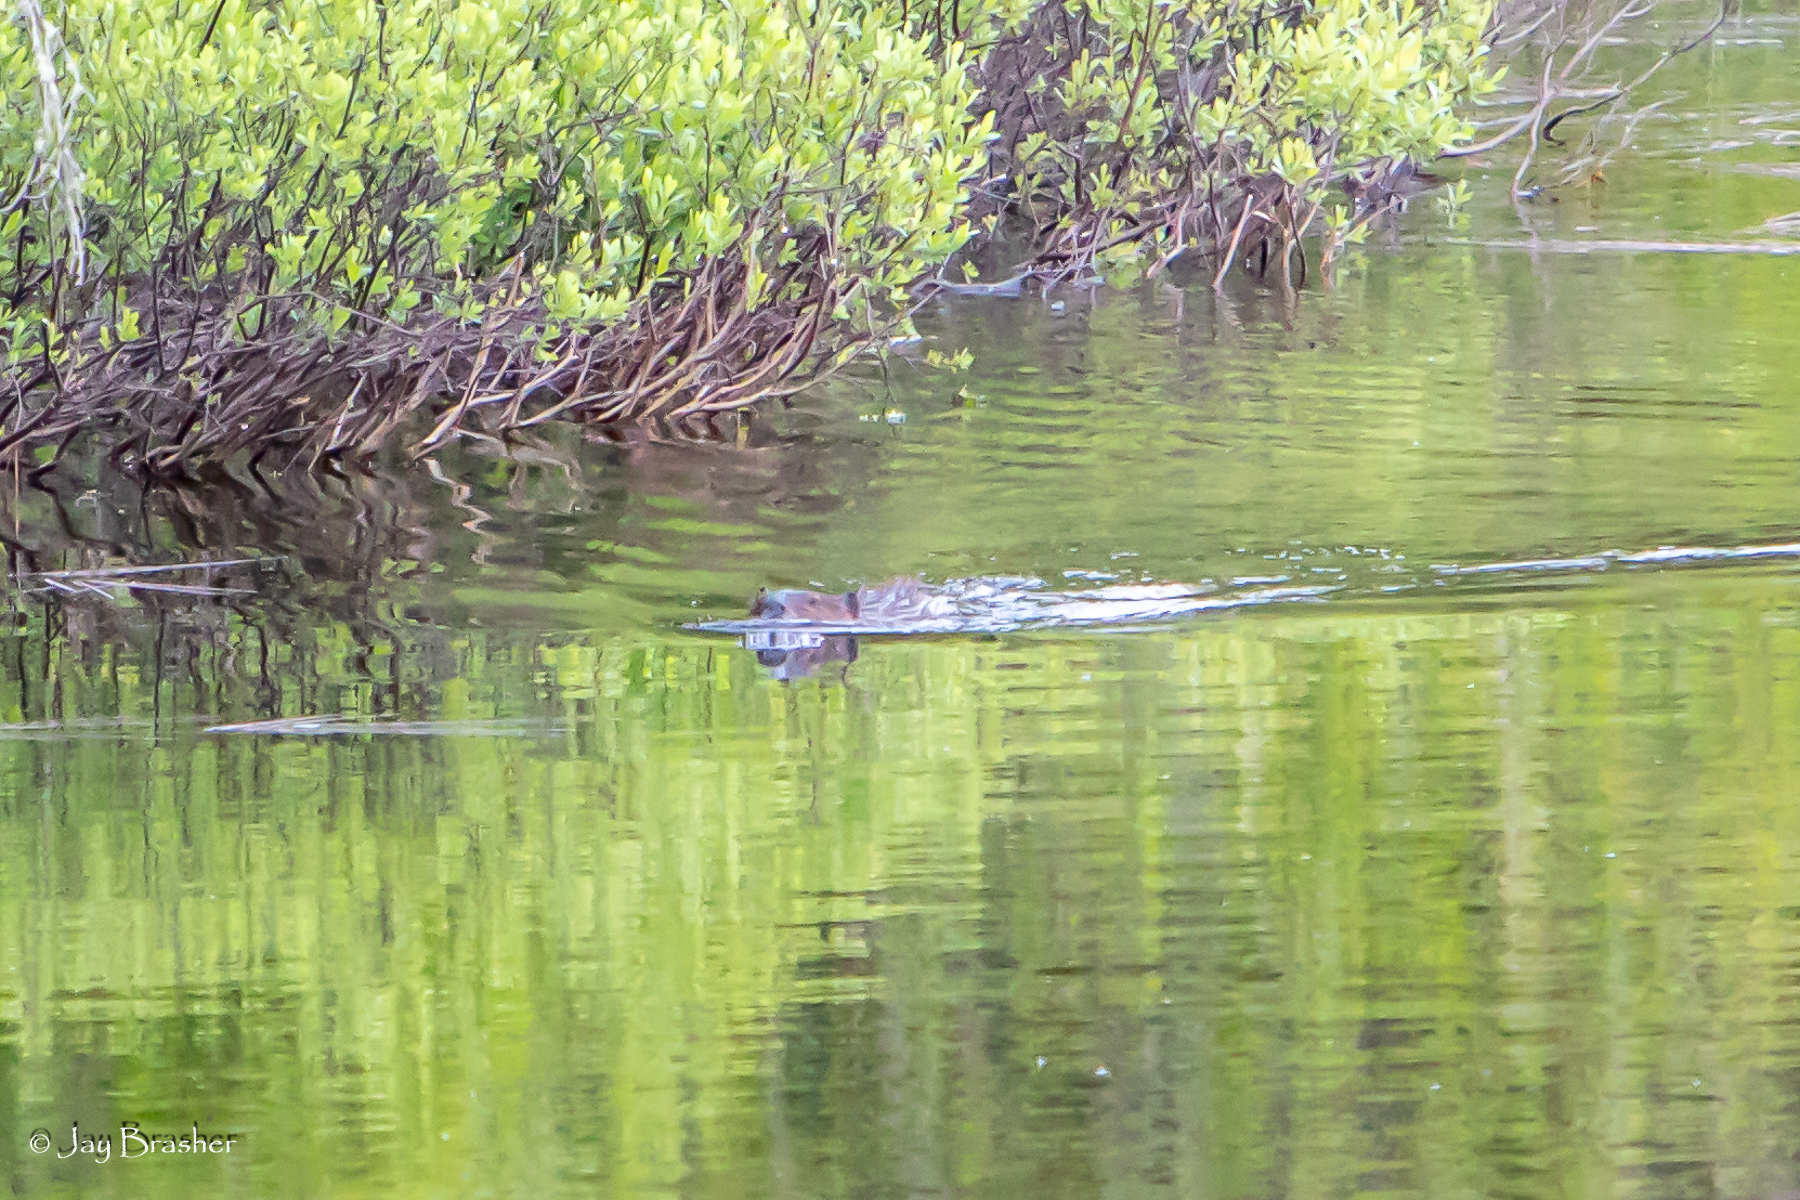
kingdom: Animalia
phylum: Chordata
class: Mammalia
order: Rodentia
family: Castoridae
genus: Castor
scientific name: Castor canadensis
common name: American beaver
